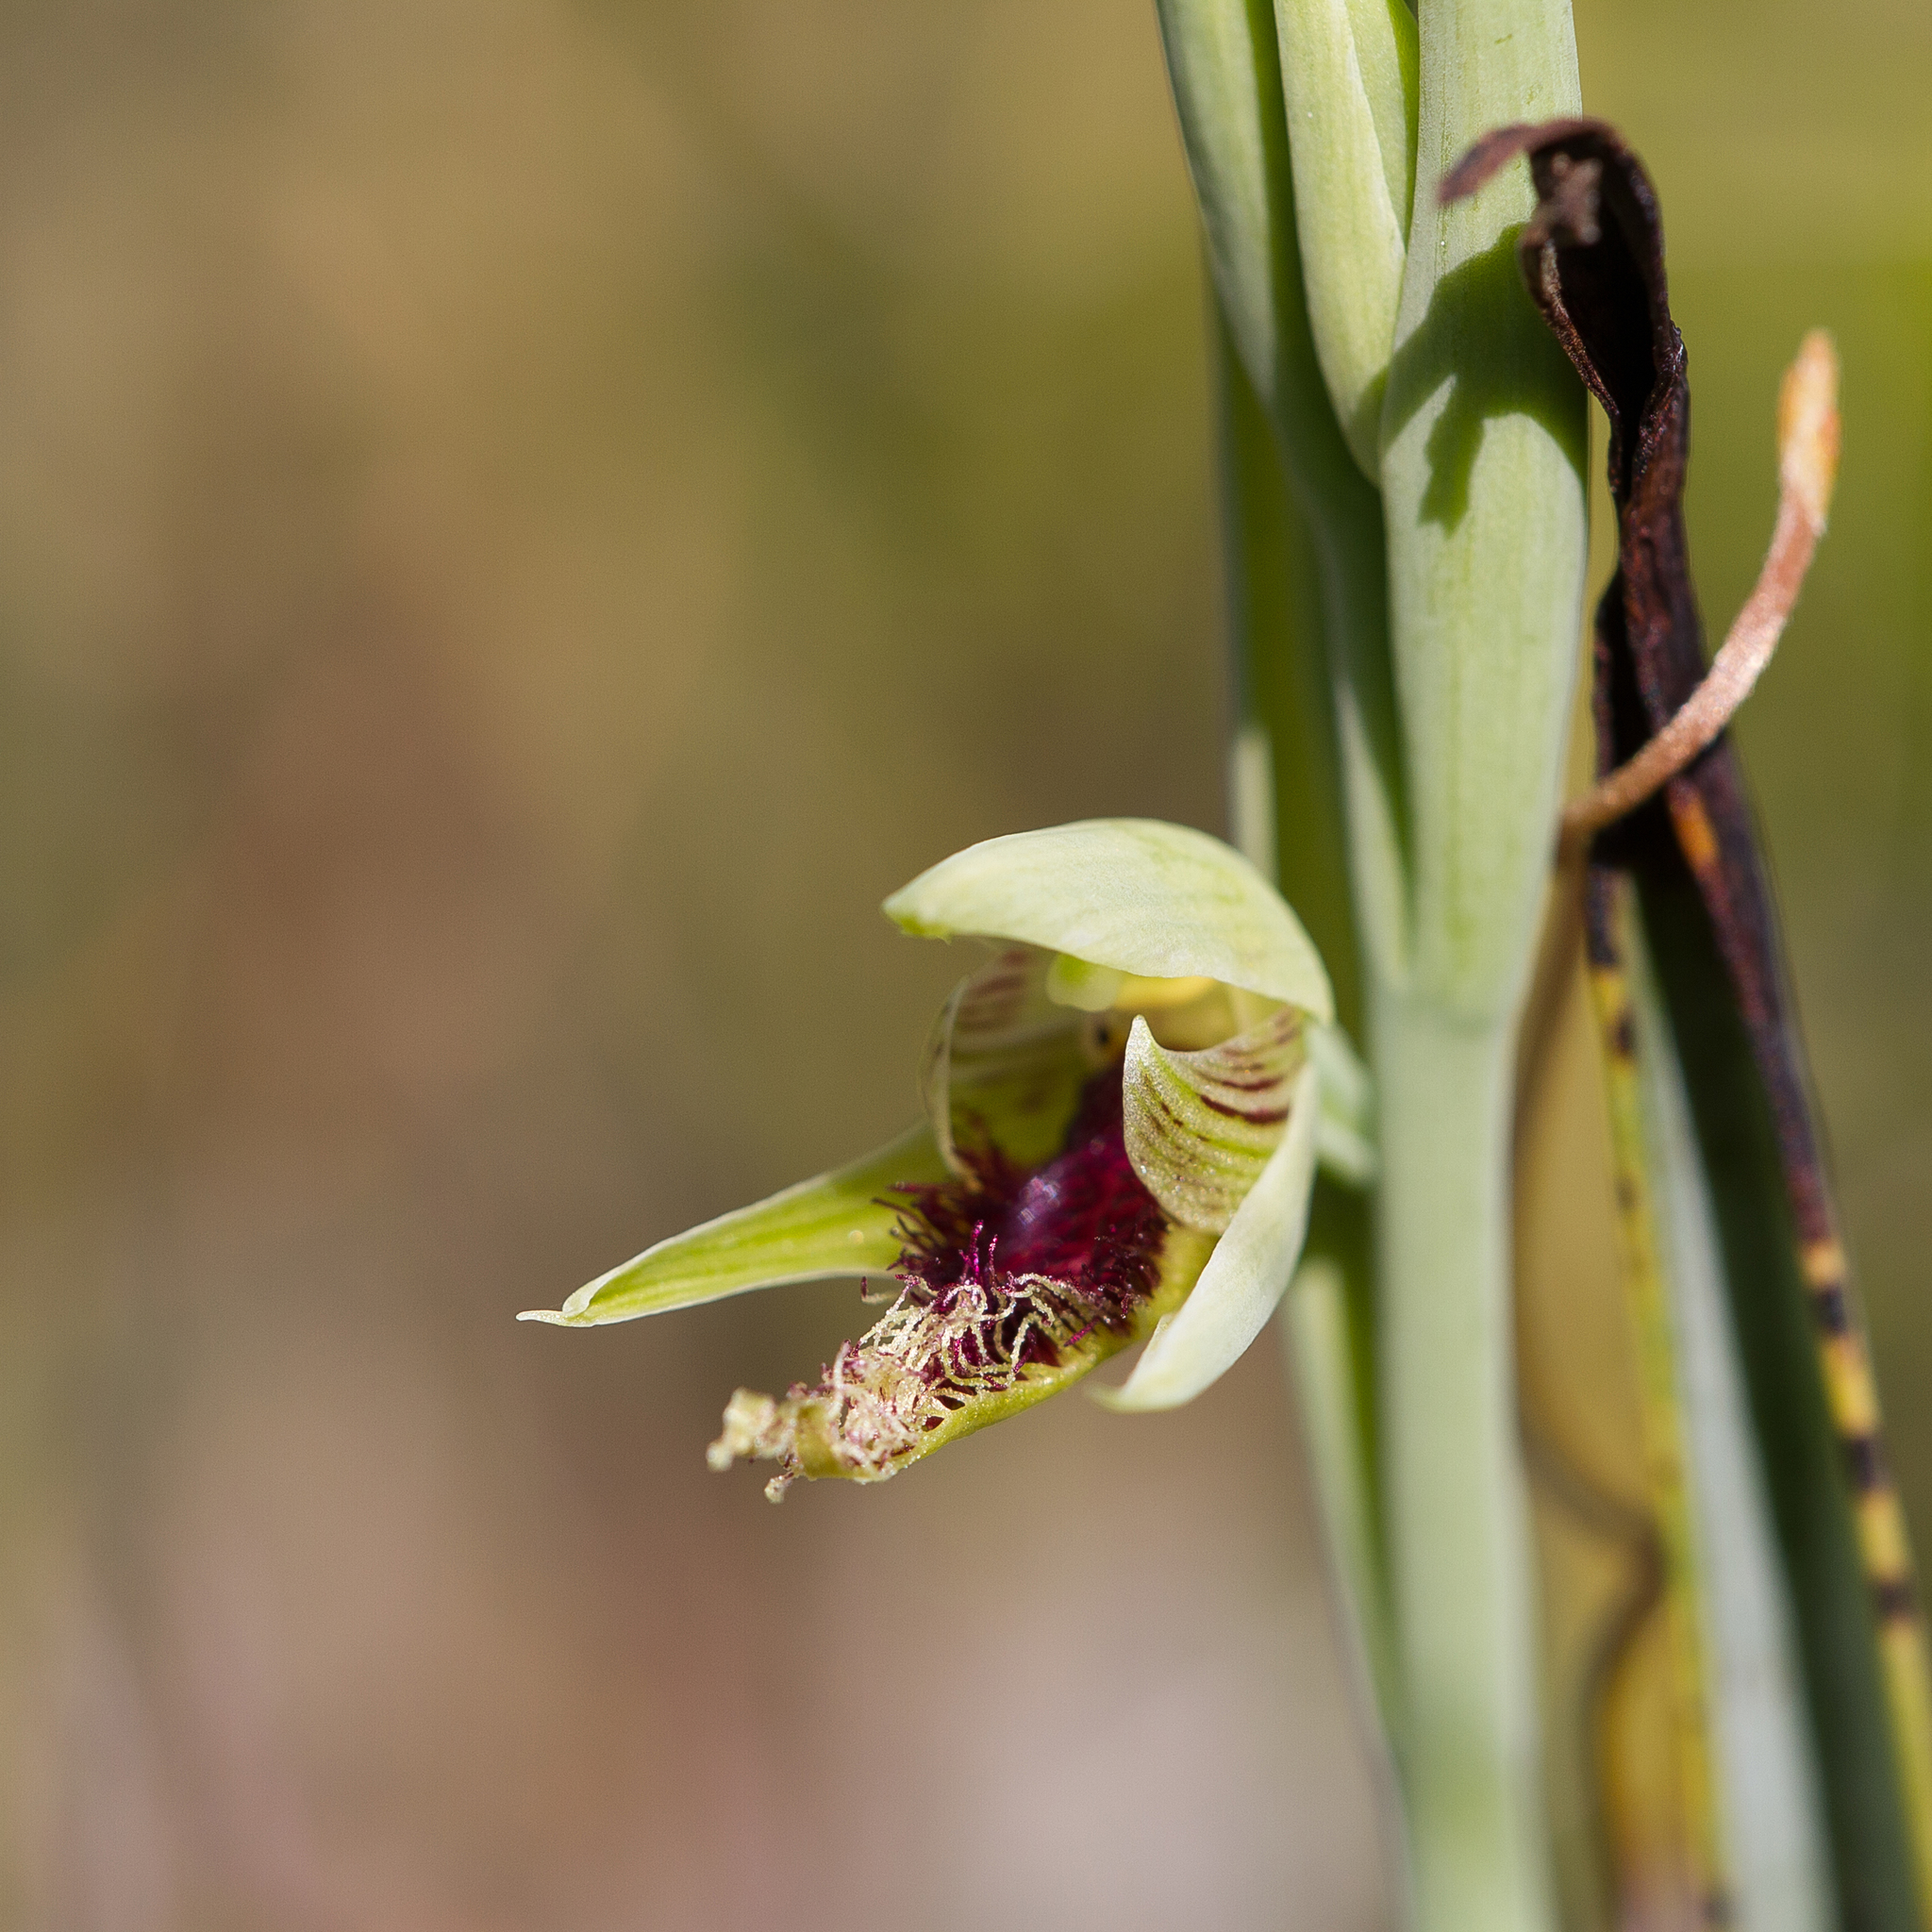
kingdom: Plantae
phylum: Tracheophyta
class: Liliopsida
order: Asparagales
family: Orchidaceae
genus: Calochilus
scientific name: Calochilus robertsonii
